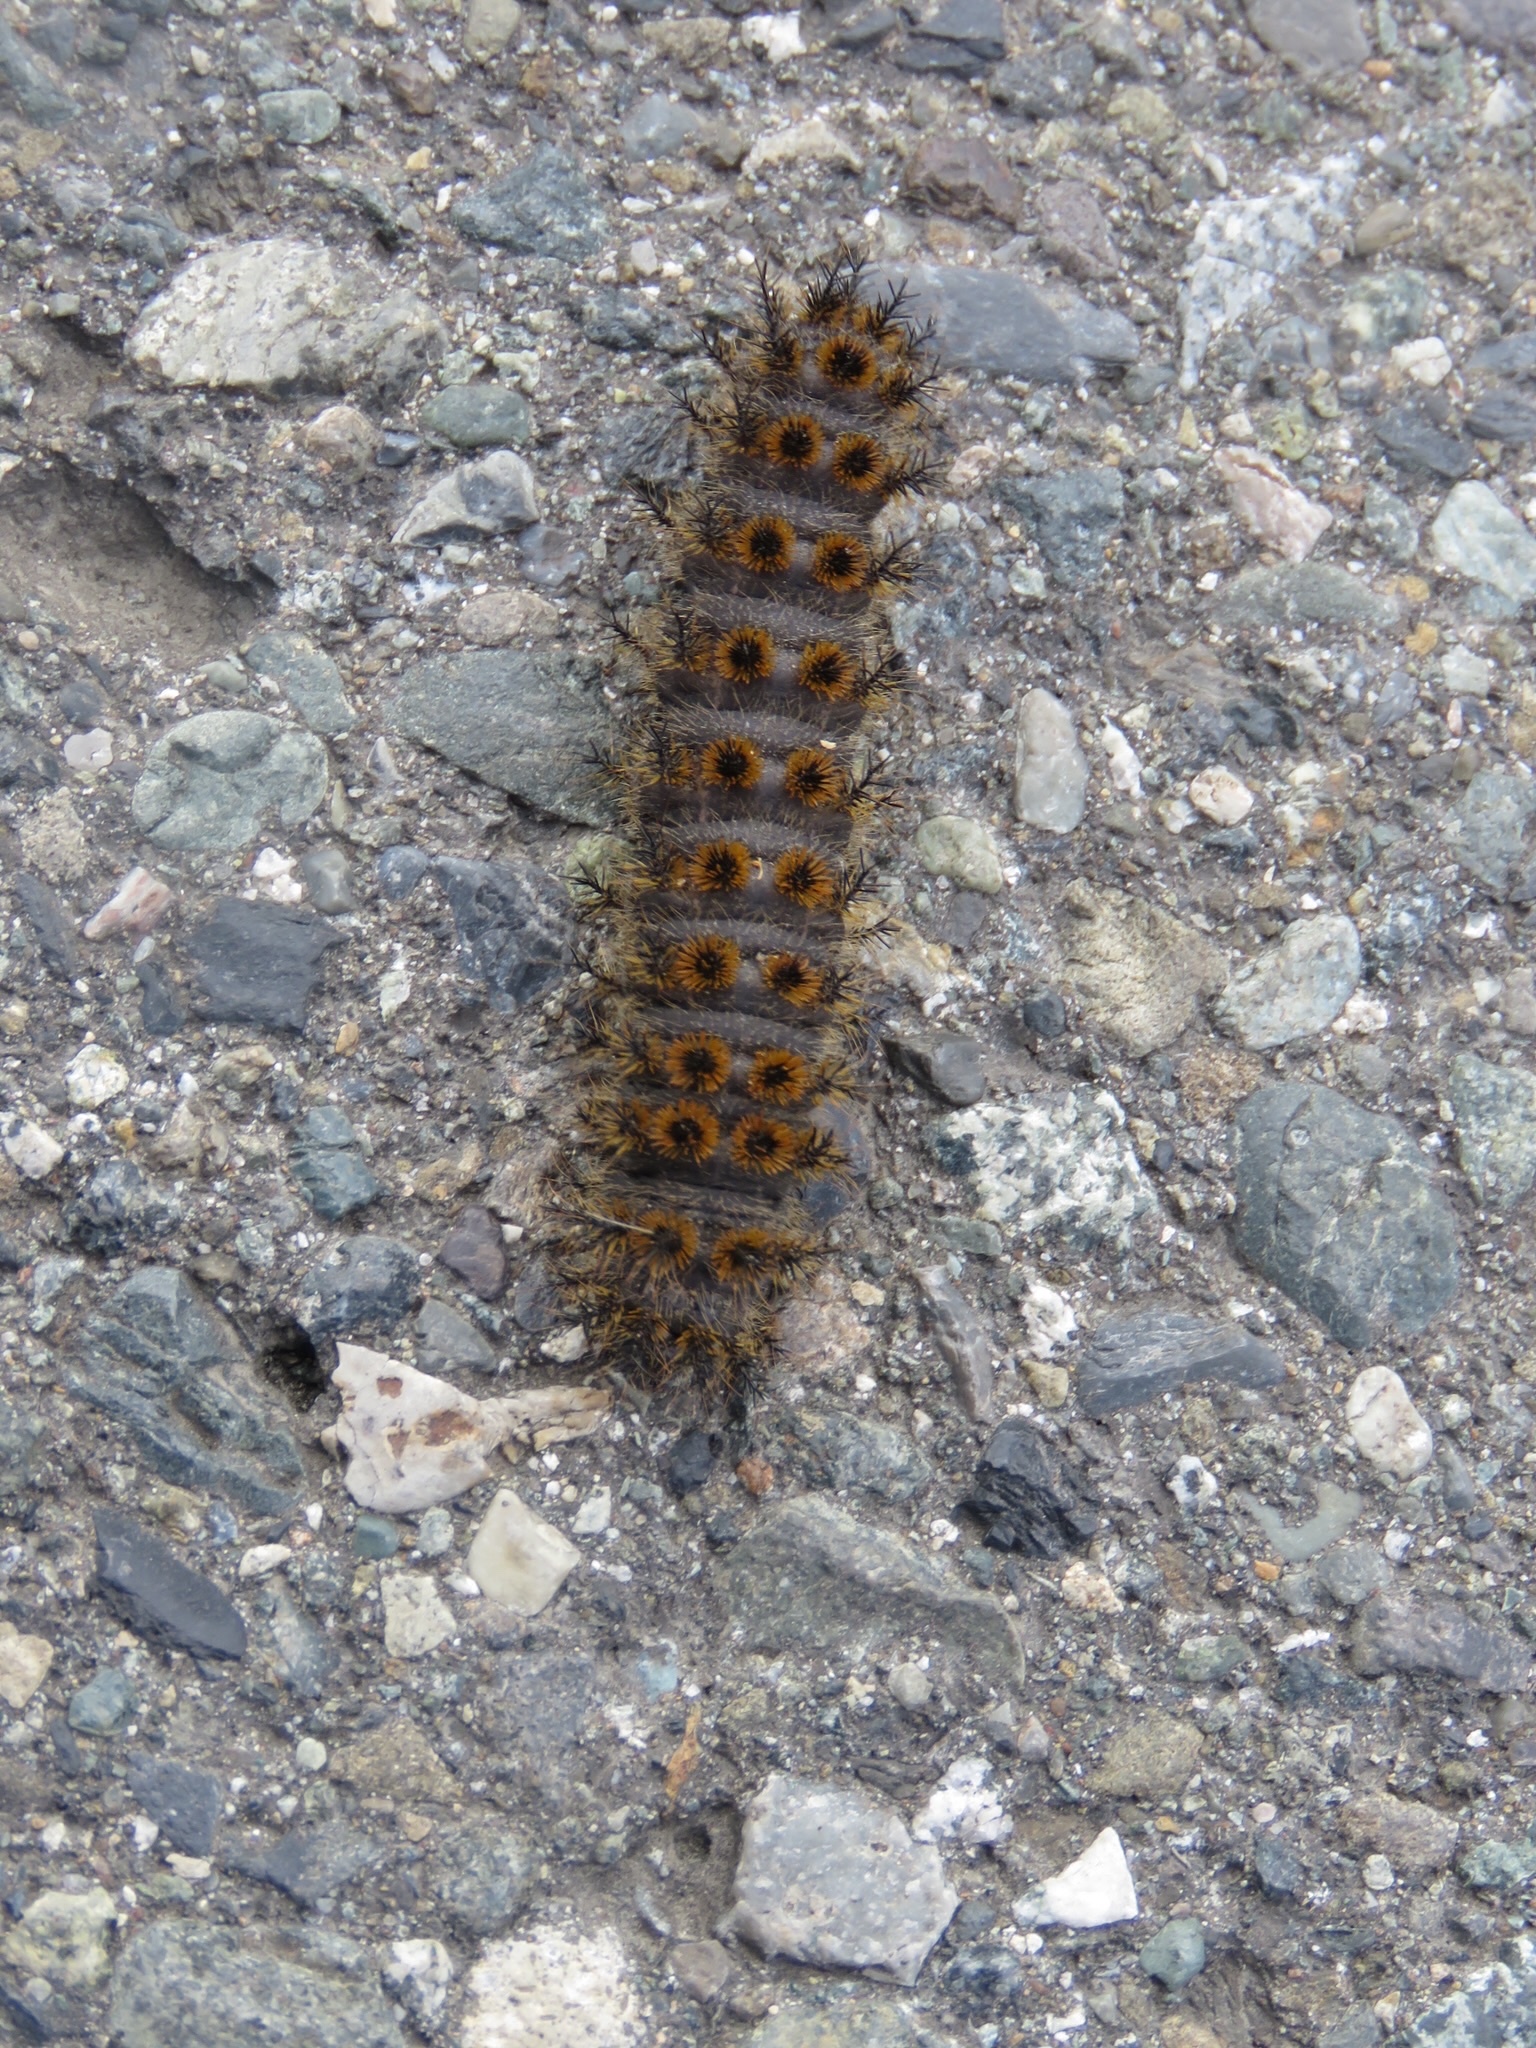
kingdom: Animalia
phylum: Arthropoda
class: Insecta
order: Lepidoptera
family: Saturniidae
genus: Hemileuca
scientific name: Hemileuca eglanterina
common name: Western sheepmoth
